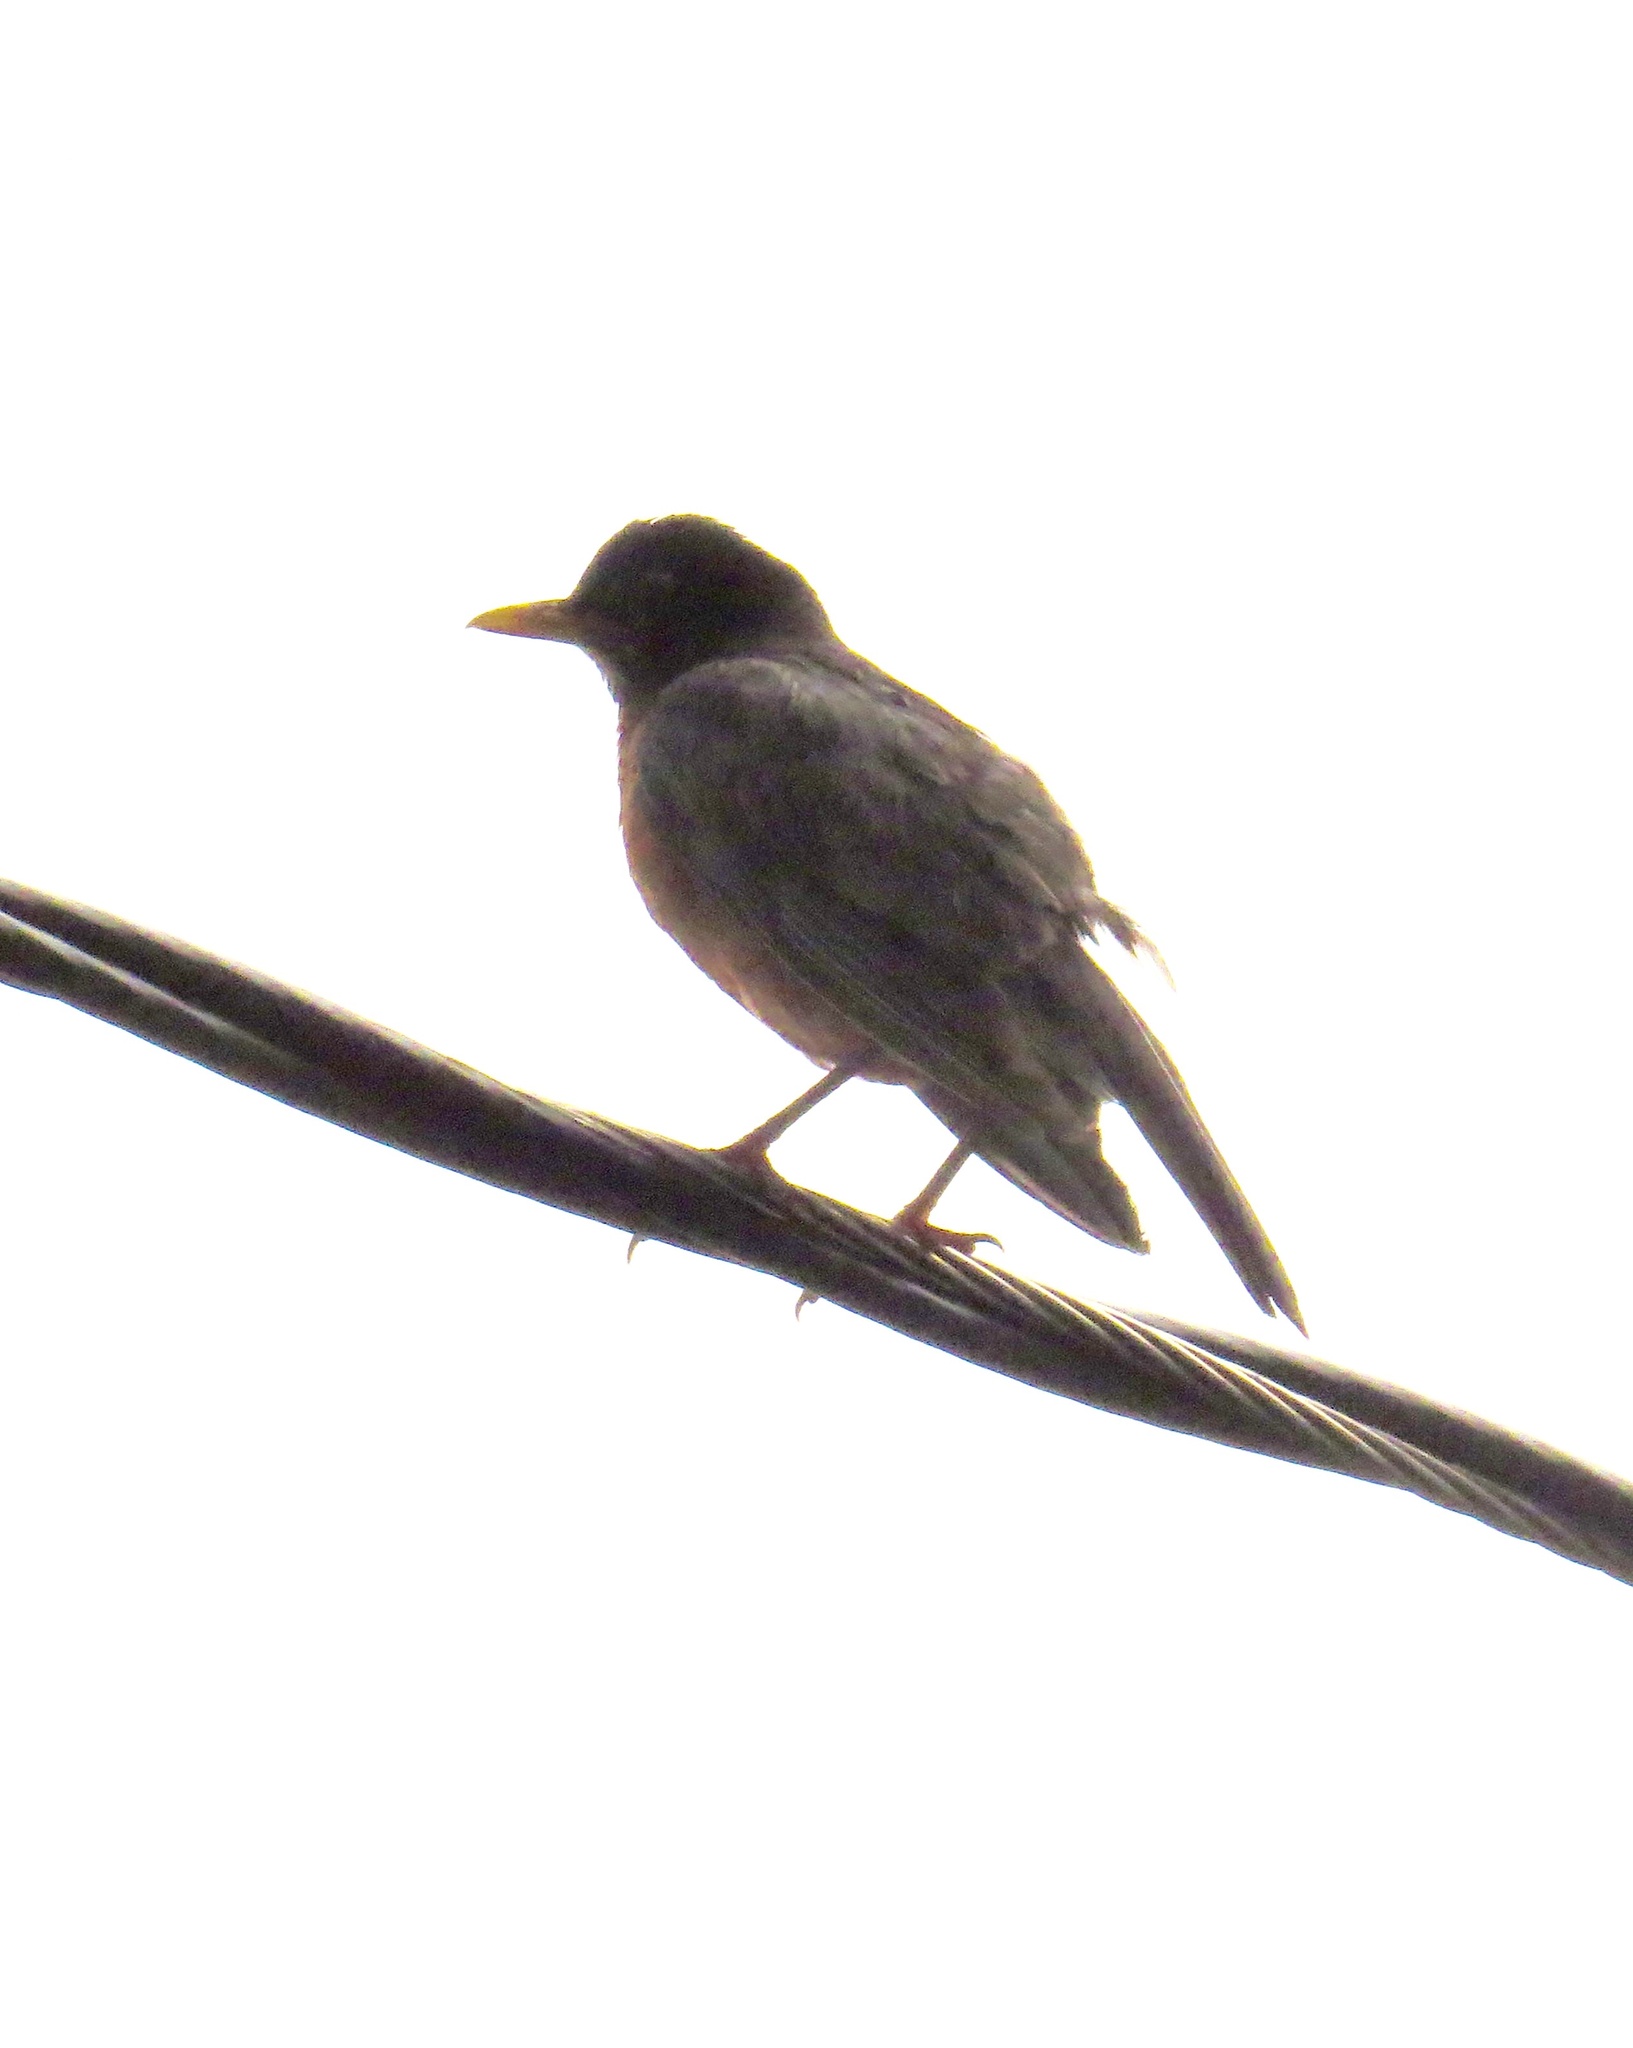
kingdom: Animalia
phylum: Chordata
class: Aves
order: Passeriformes
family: Turdidae
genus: Turdus
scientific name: Turdus migratorius
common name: American robin
